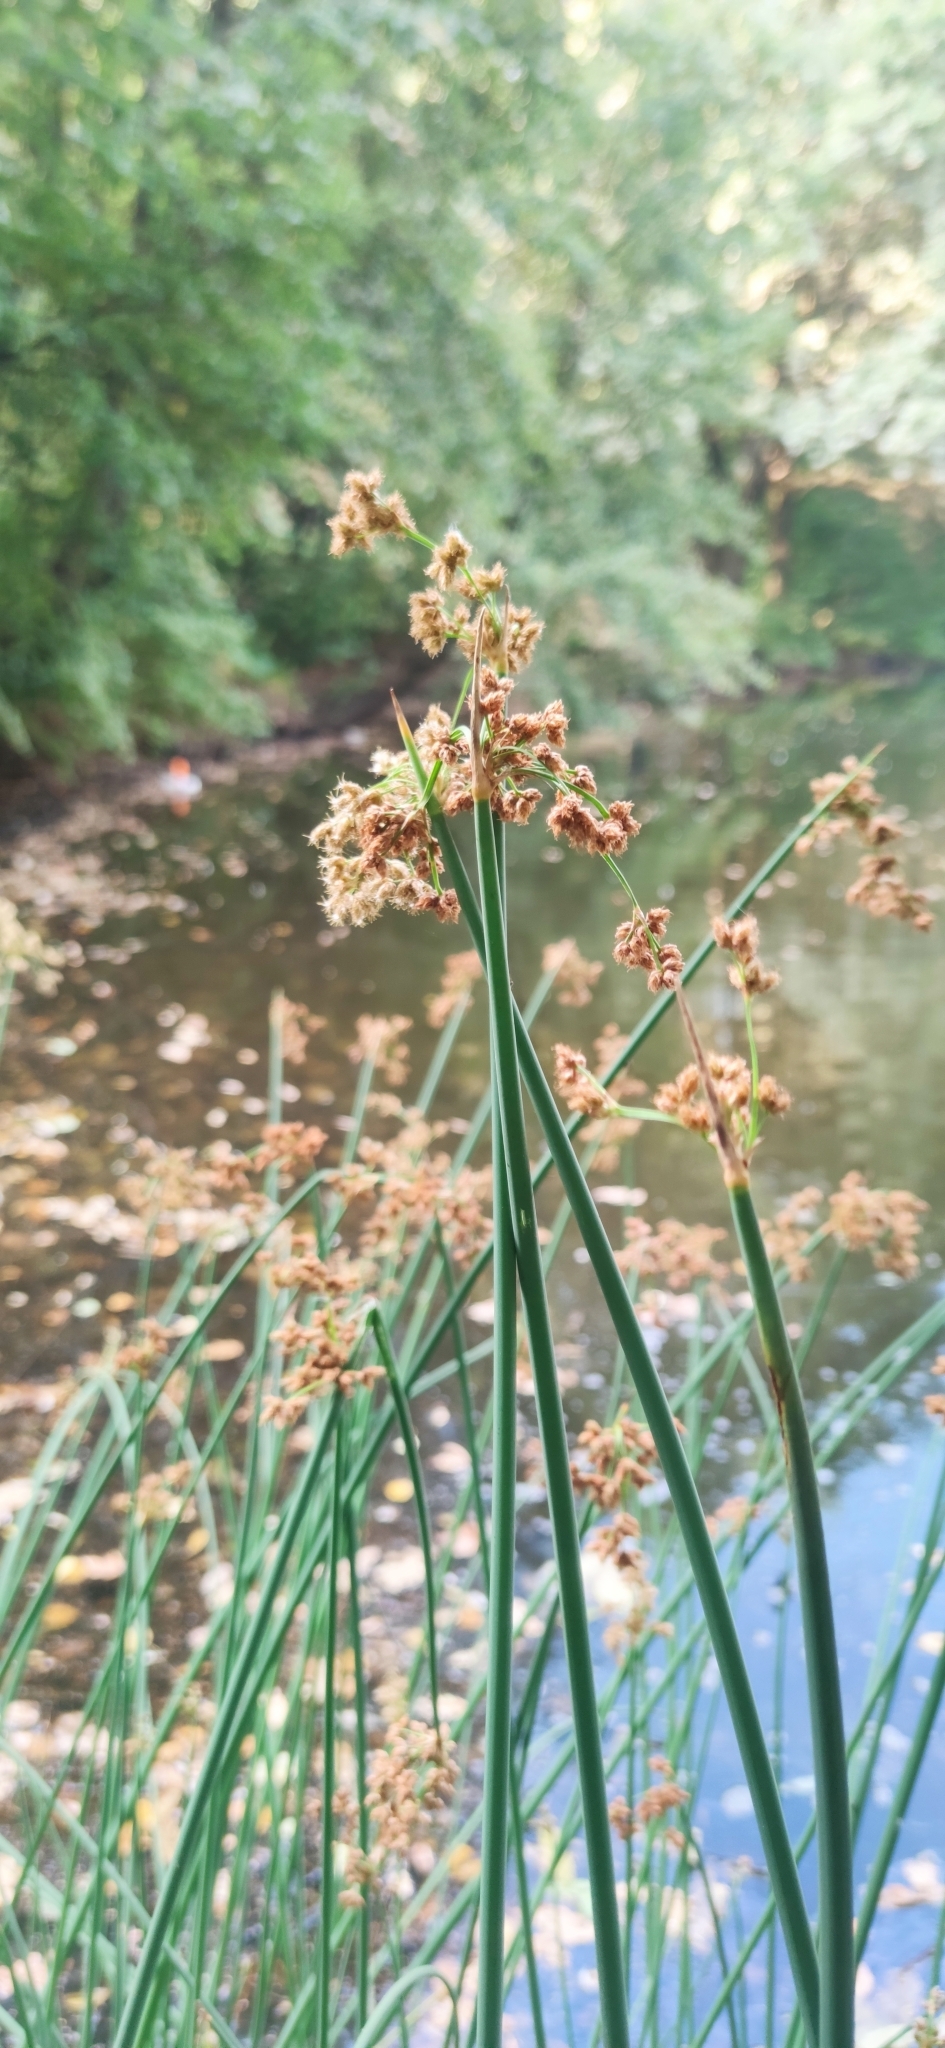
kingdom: Plantae
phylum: Tracheophyta
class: Liliopsida
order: Poales
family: Cyperaceae
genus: Schoenoplectus
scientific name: Schoenoplectus lacustris
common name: Common club-rush
